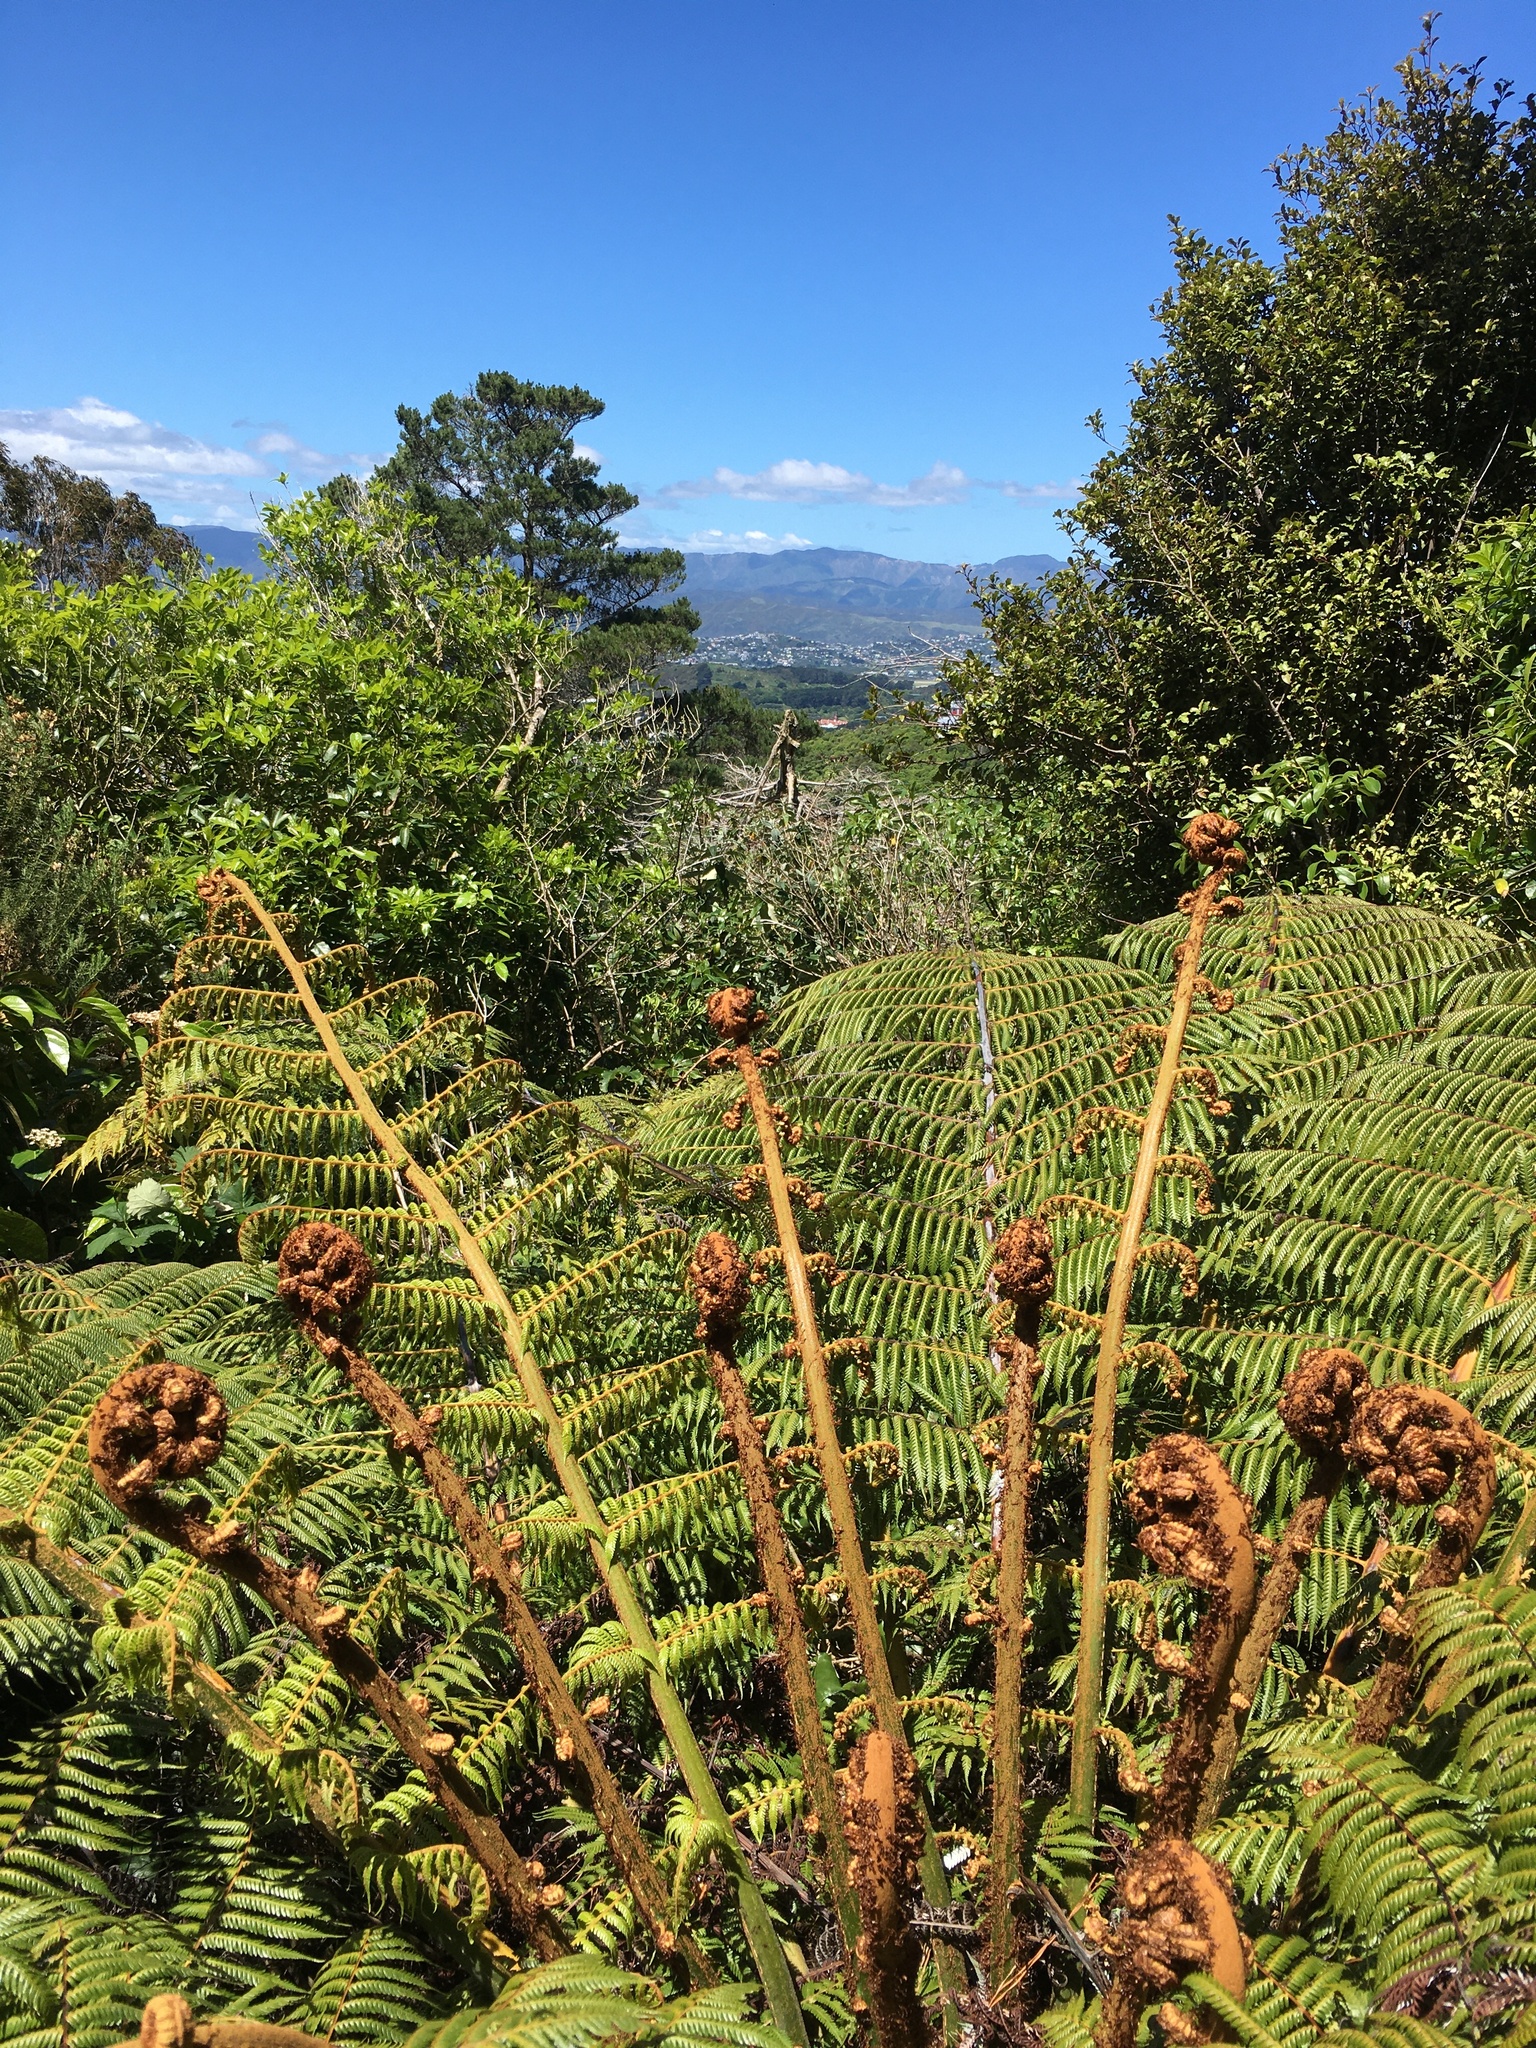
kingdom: Plantae
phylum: Tracheophyta
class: Polypodiopsida
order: Cyatheales
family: Cyatheaceae
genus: Alsophila
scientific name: Alsophila dealbata
